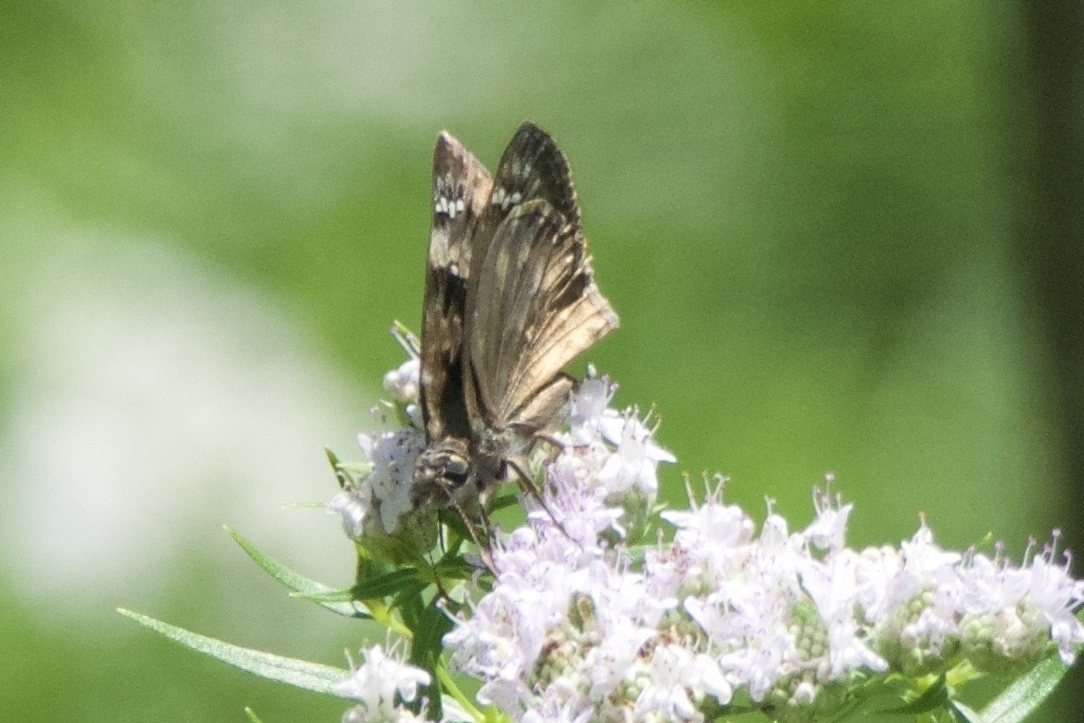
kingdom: Animalia
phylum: Arthropoda
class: Insecta
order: Lepidoptera
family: Hesperiidae
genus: Erynnis
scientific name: Erynnis horatius
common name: Horace's duskywing
